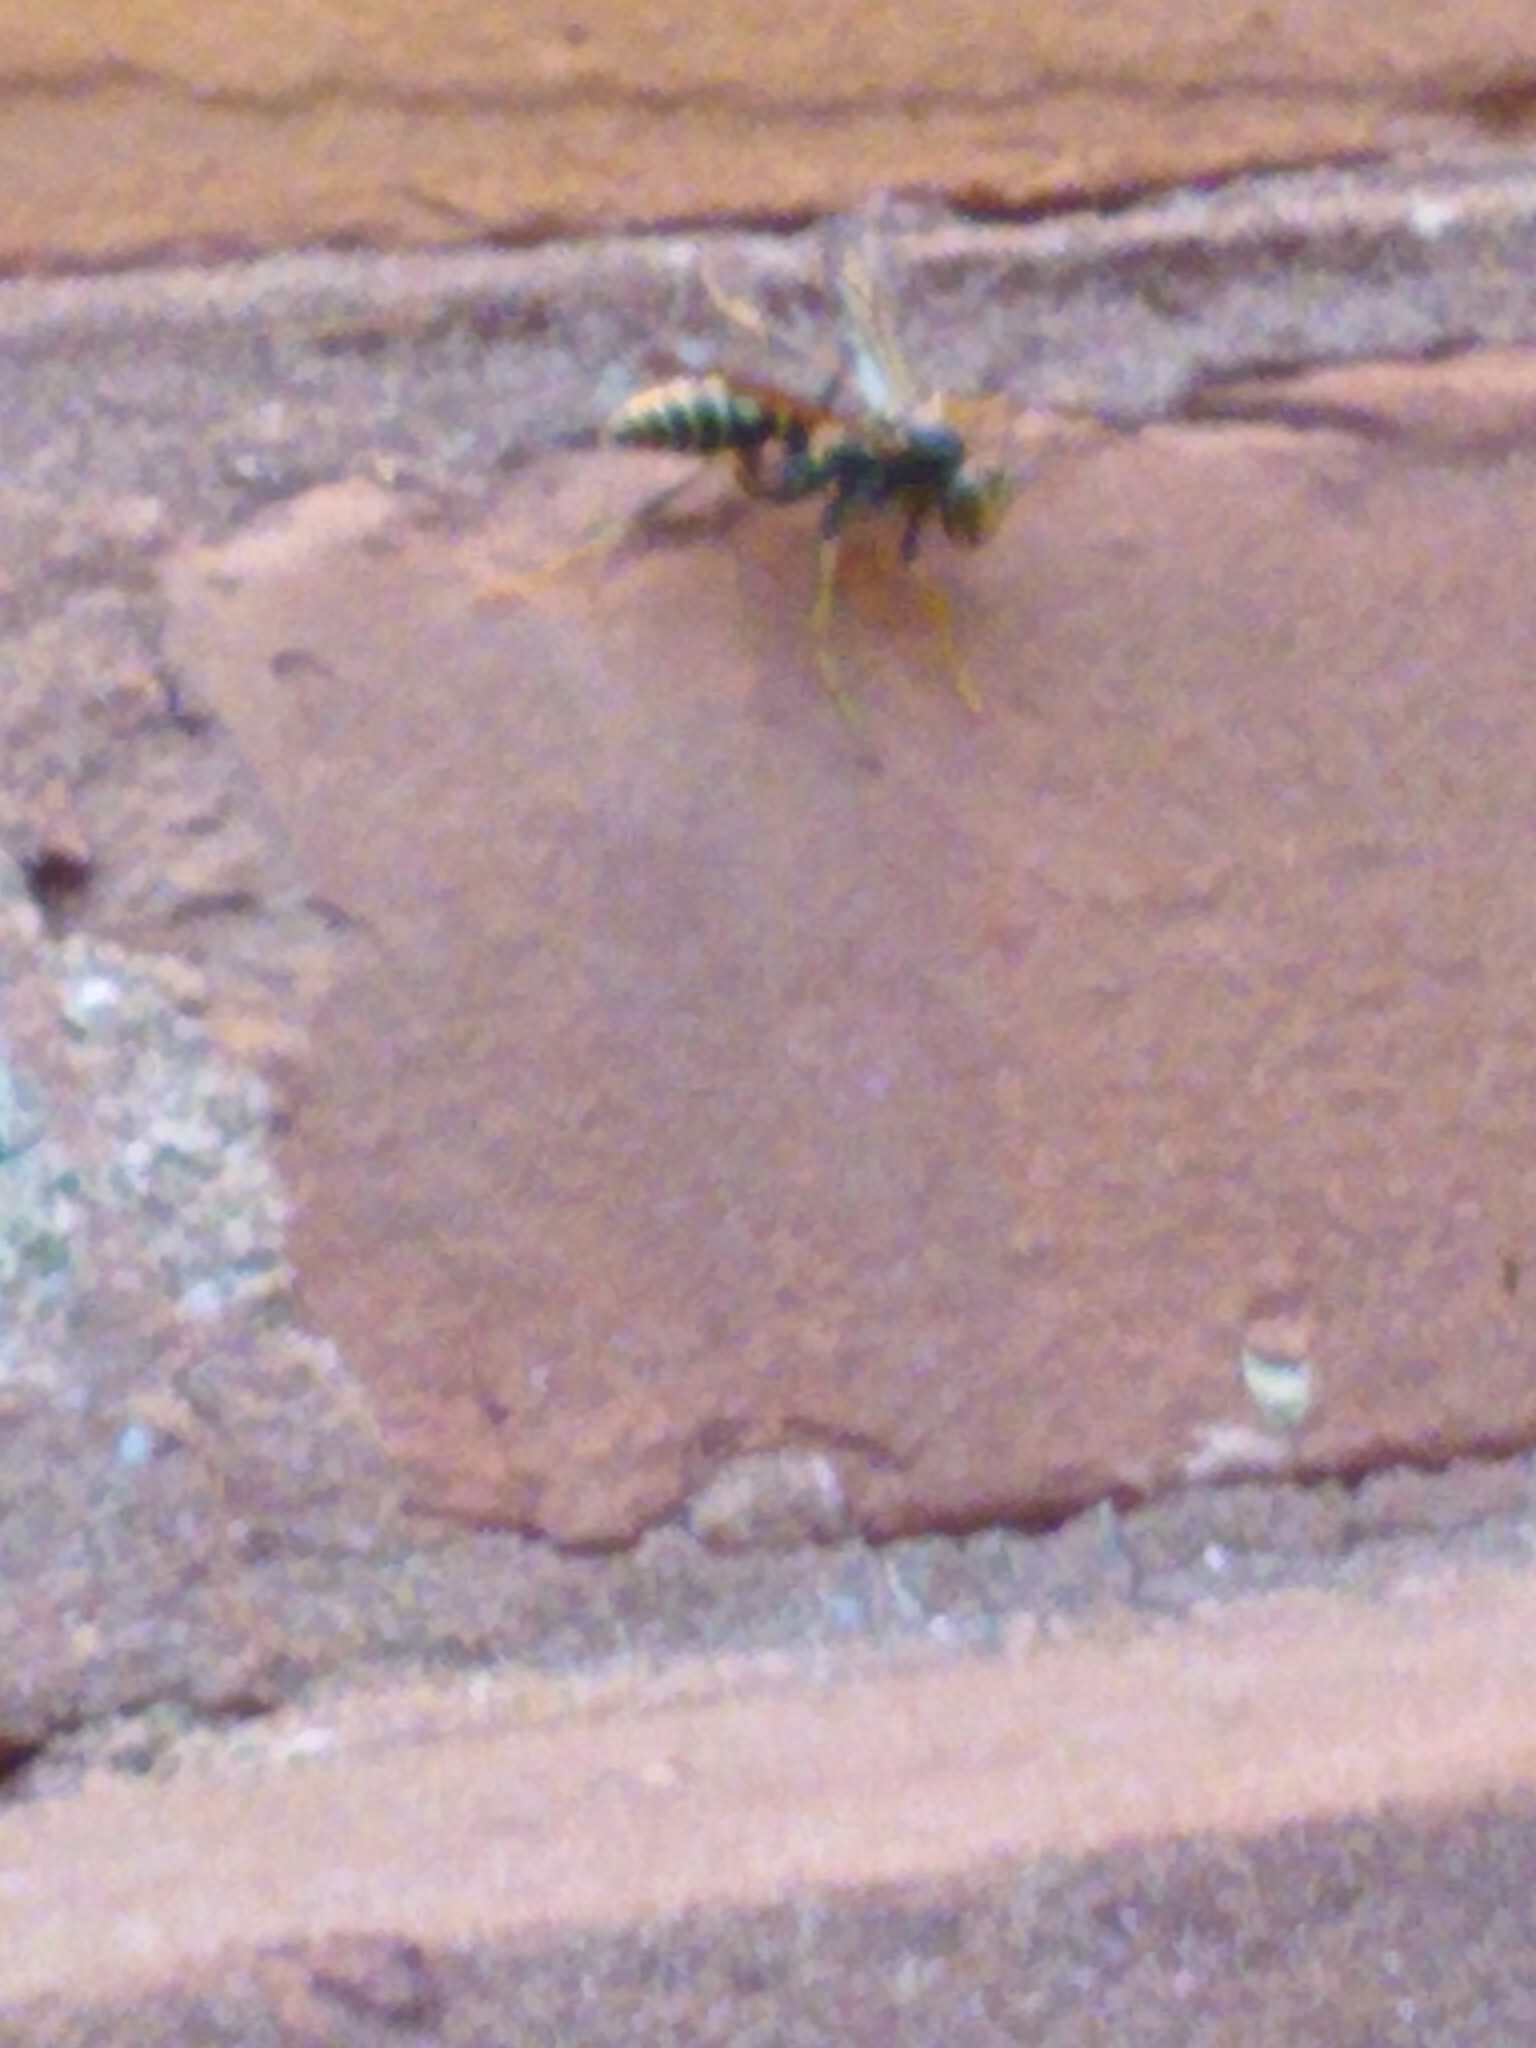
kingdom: Animalia
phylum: Arthropoda
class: Insecta
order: Hymenoptera
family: Eumenidae
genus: Polistes
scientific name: Polistes fuscatus
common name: Dark paper wasp
